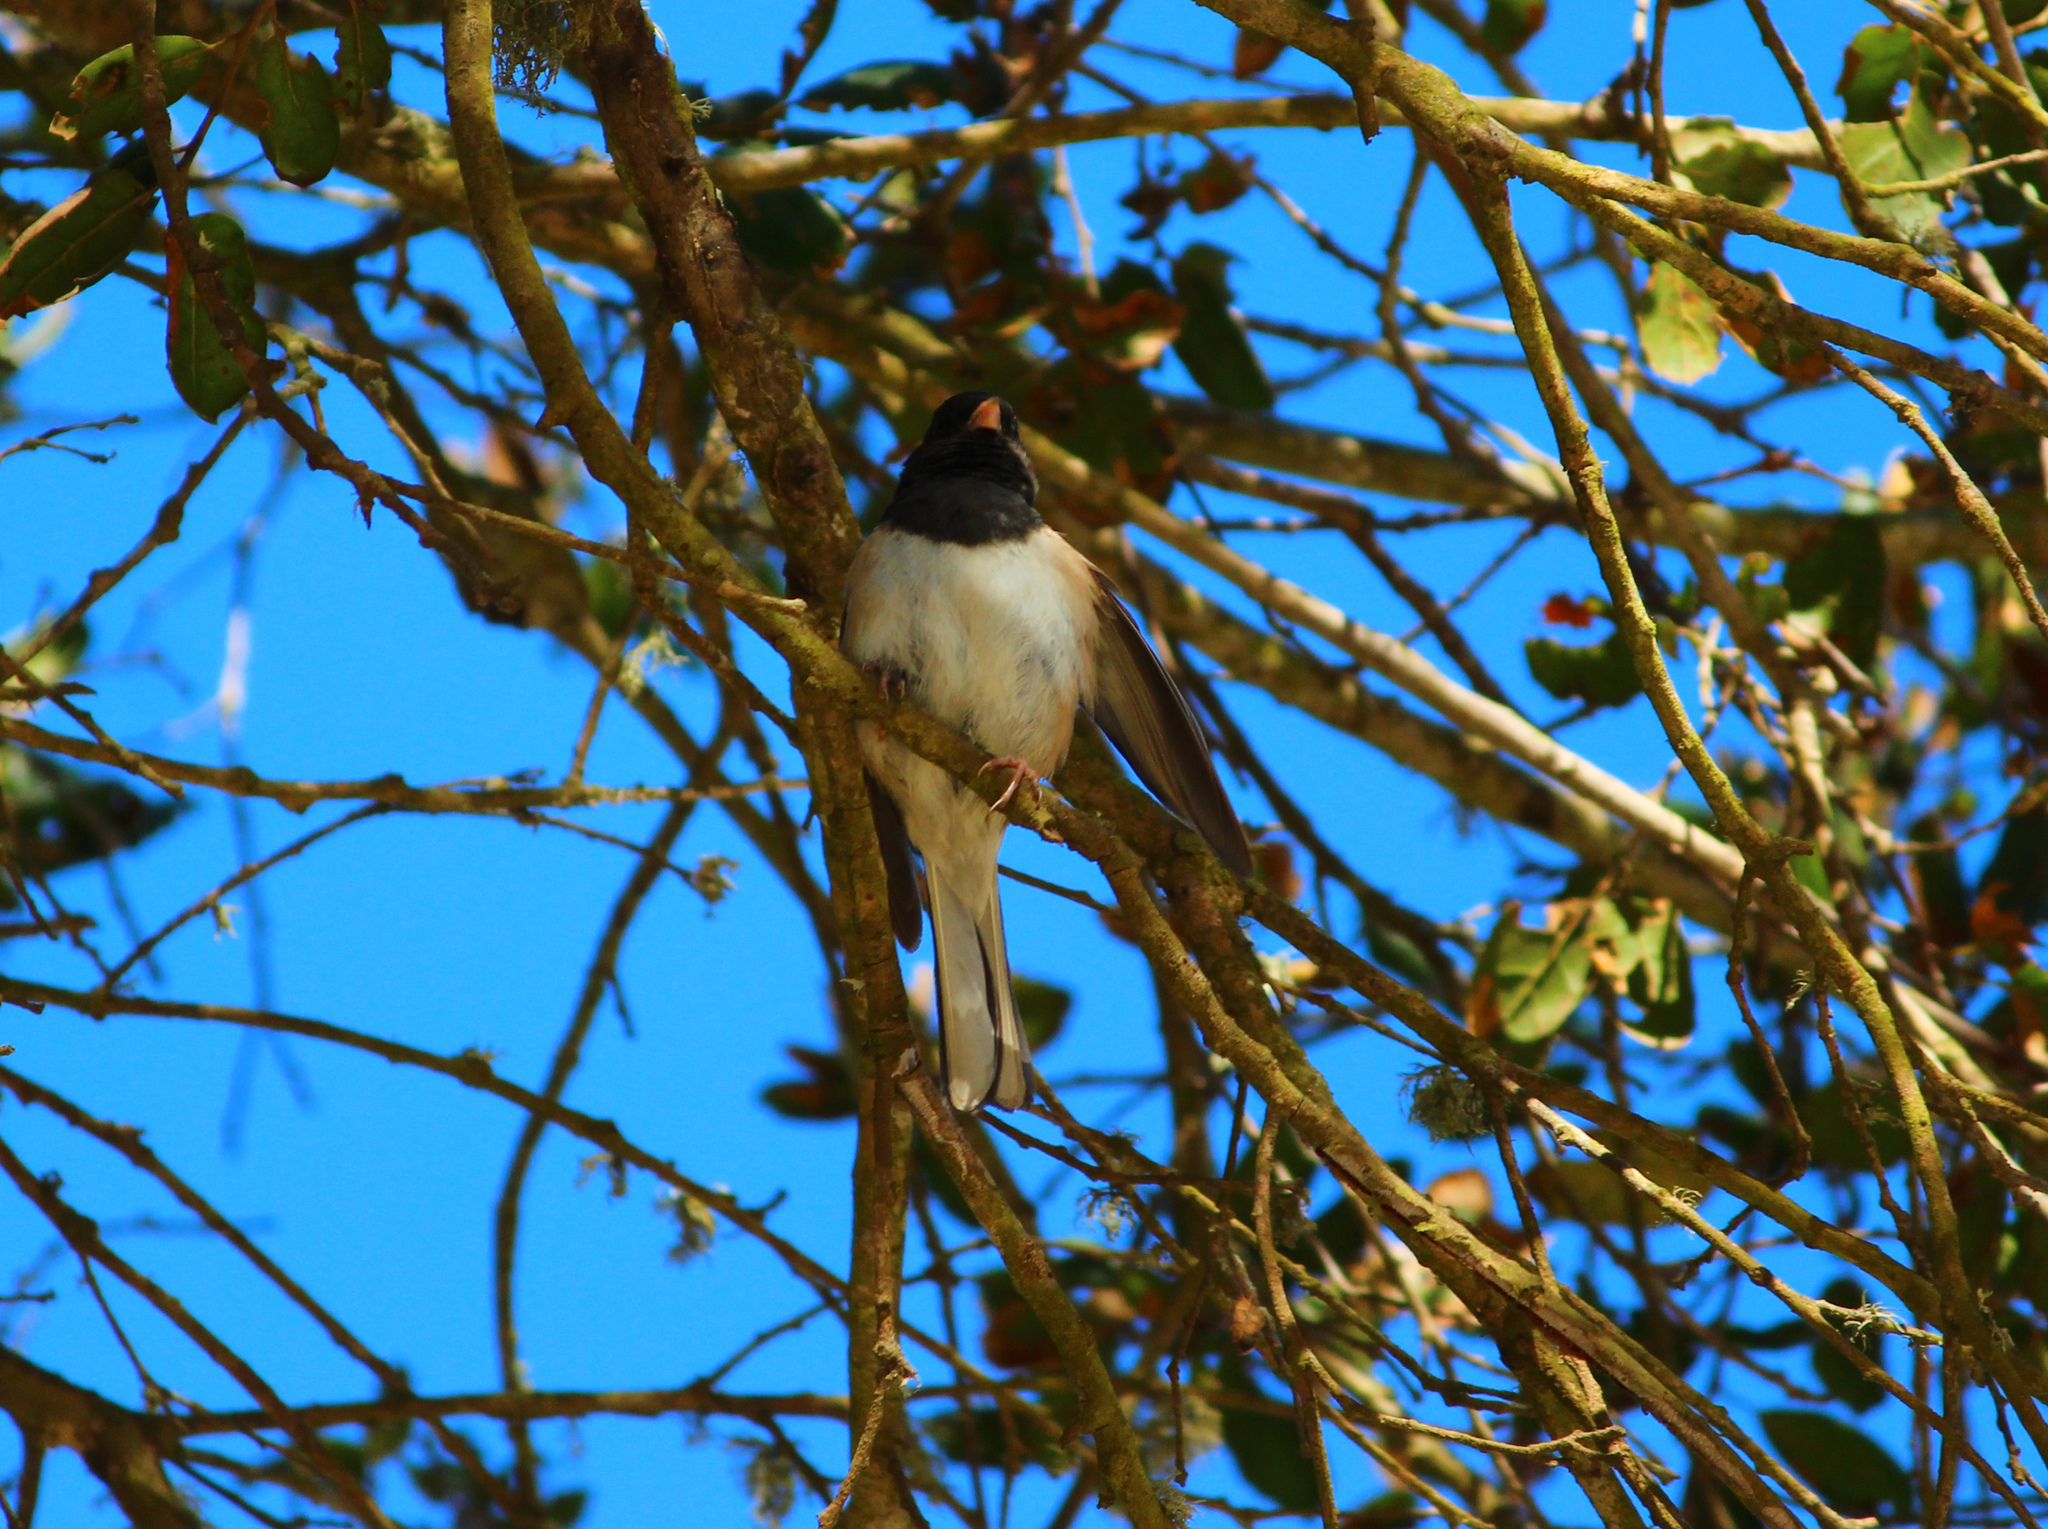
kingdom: Animalia
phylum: Chordata
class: Aves
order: Passeriformes
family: Passerellidae
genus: Junco
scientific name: Junco hyemalis
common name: Dark-eyed junco
